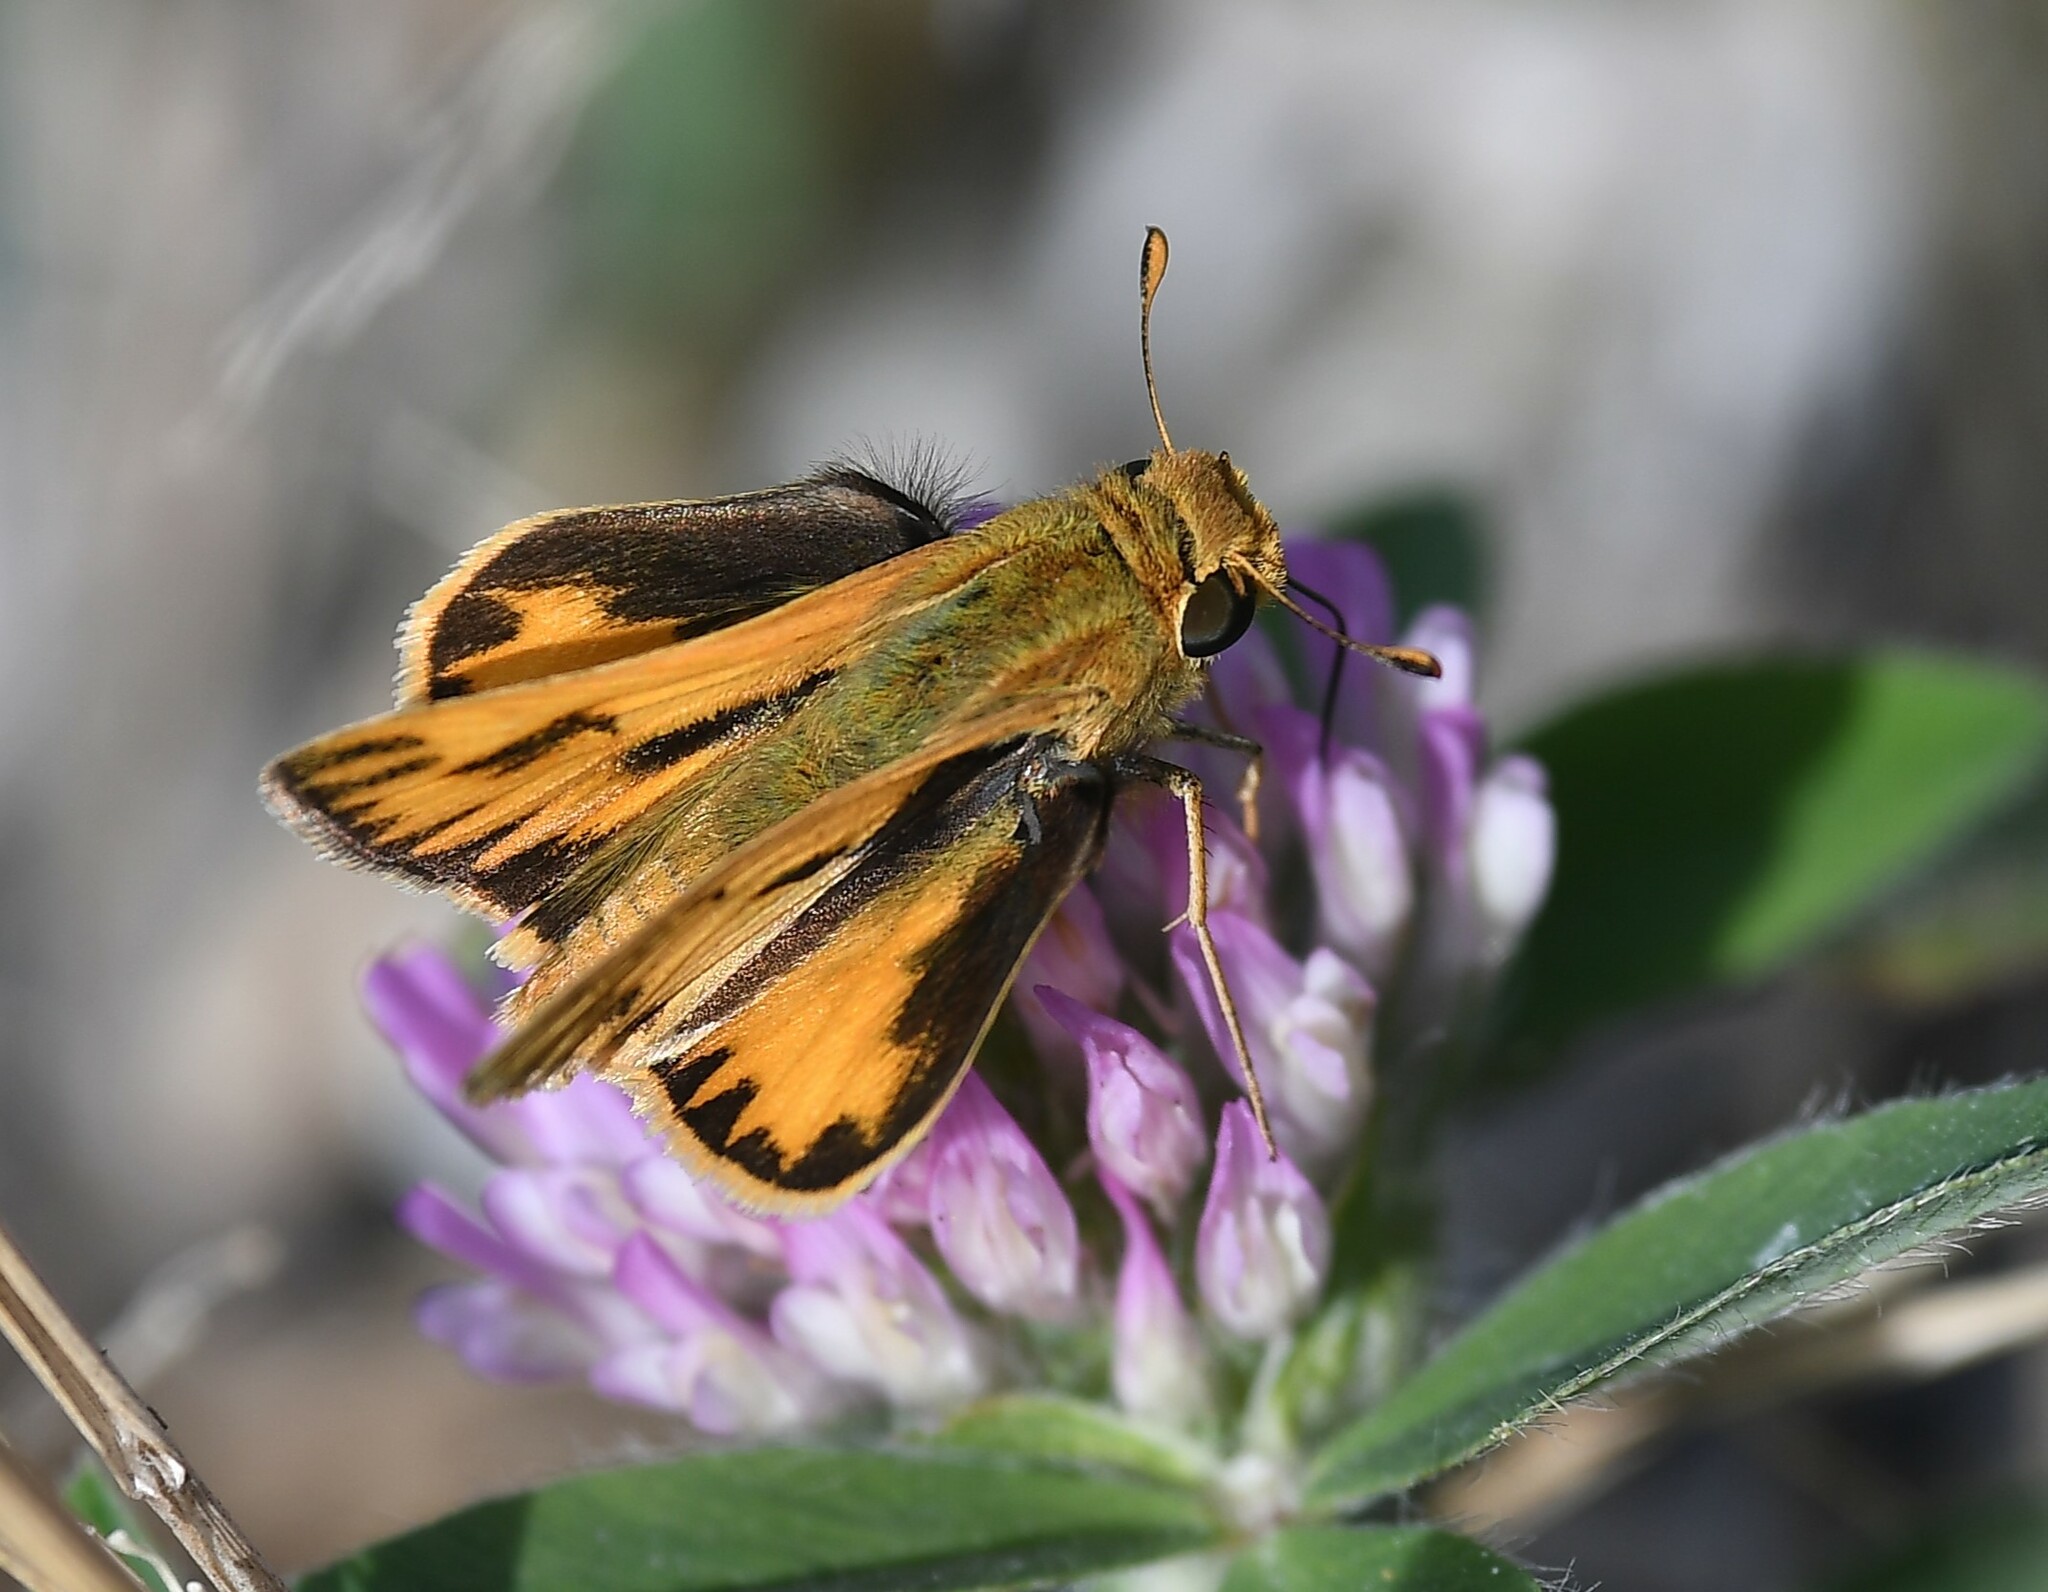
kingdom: Animalia
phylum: Arthropoda
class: Insecta
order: Lepidoptera
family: Hesperiidae
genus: Hylephila
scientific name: Hylephila phyleus
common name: Fiery skipper
